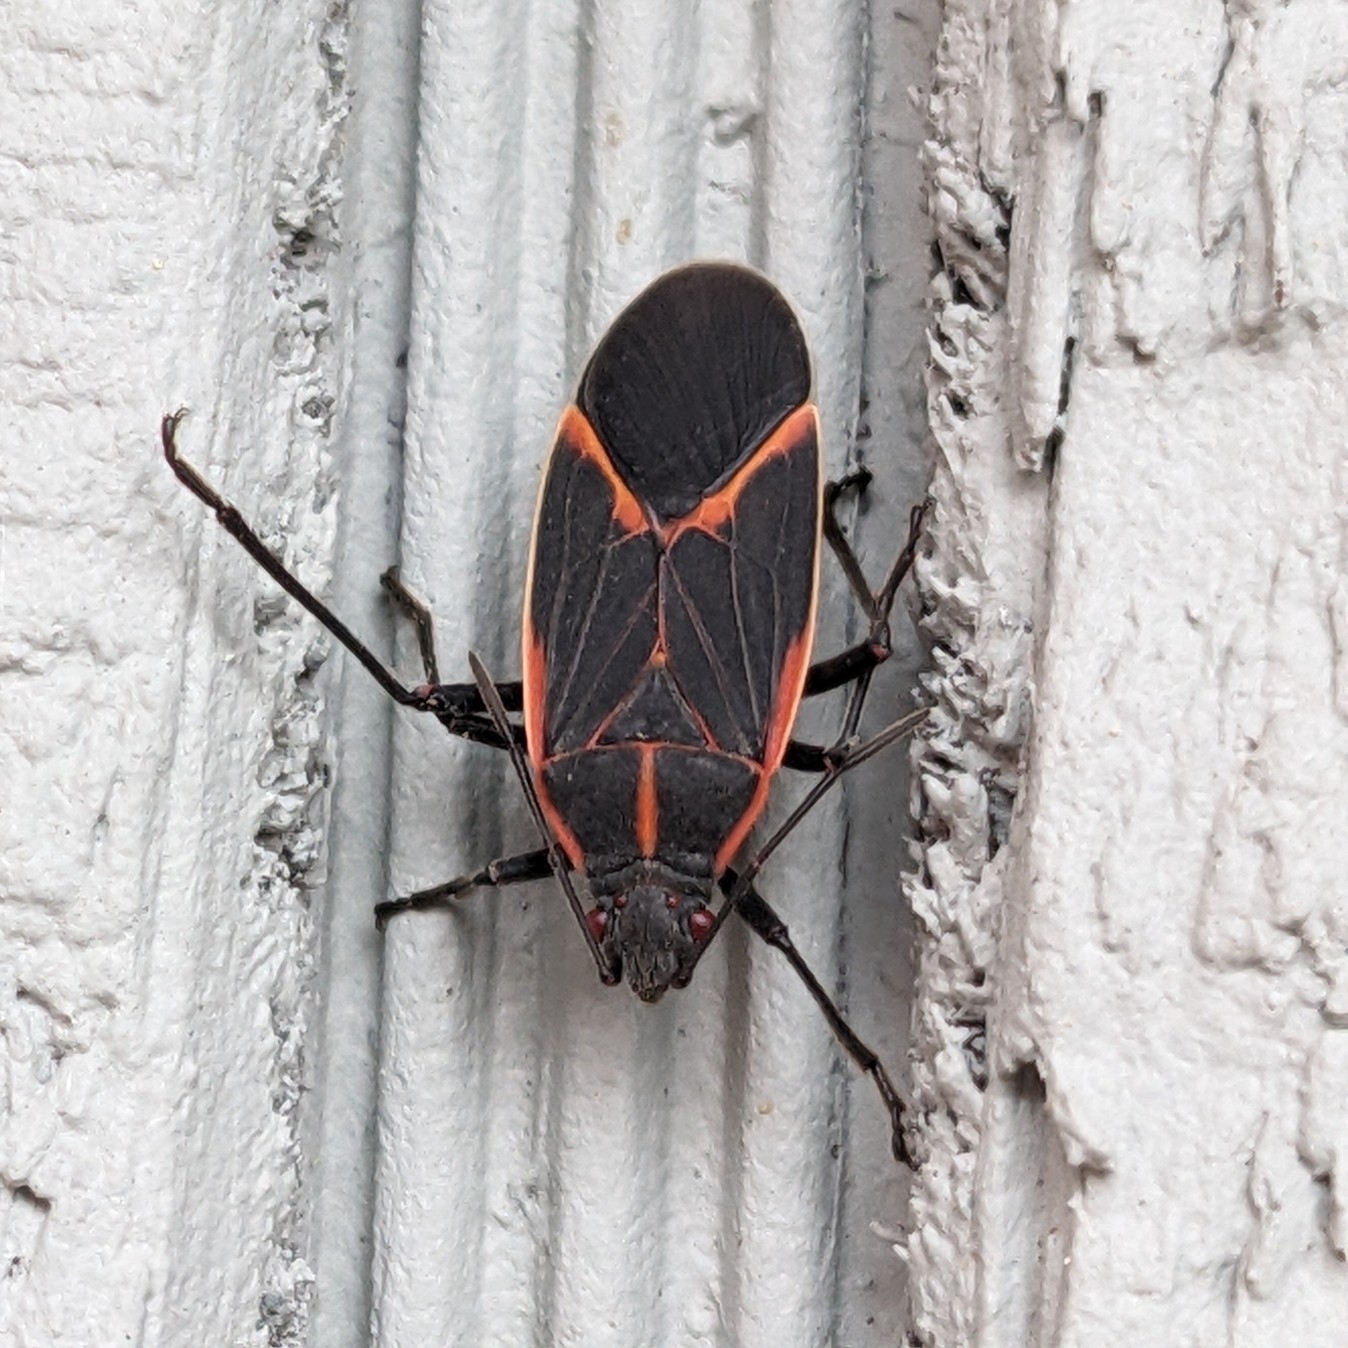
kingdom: Animalia
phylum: Arthropoda
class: Insecta
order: Hemiptera
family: Rhopalidae
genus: Boisea
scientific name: Boisea trivittata
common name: Boxelder bug
